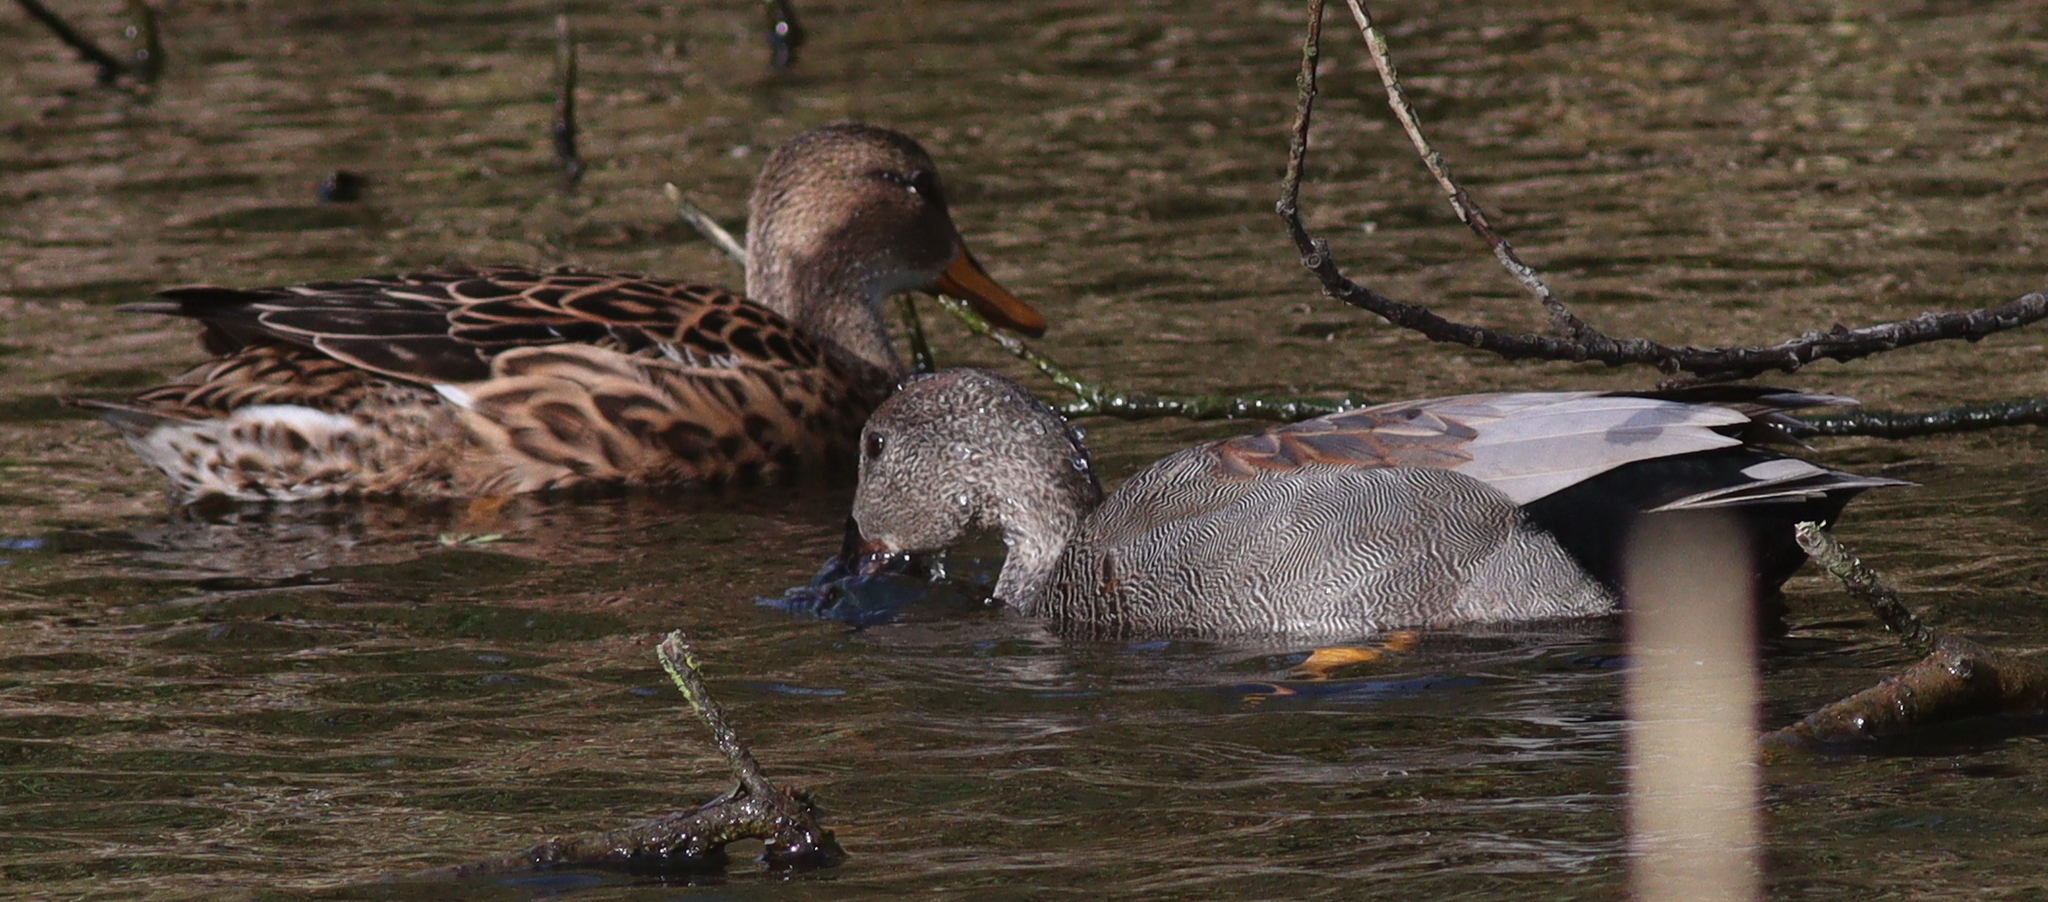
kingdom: Animalia
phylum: Chordata
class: Aves
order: Anseriformes
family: Anatidae
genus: Mareca
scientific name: Mareca strepera
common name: Gadwall
